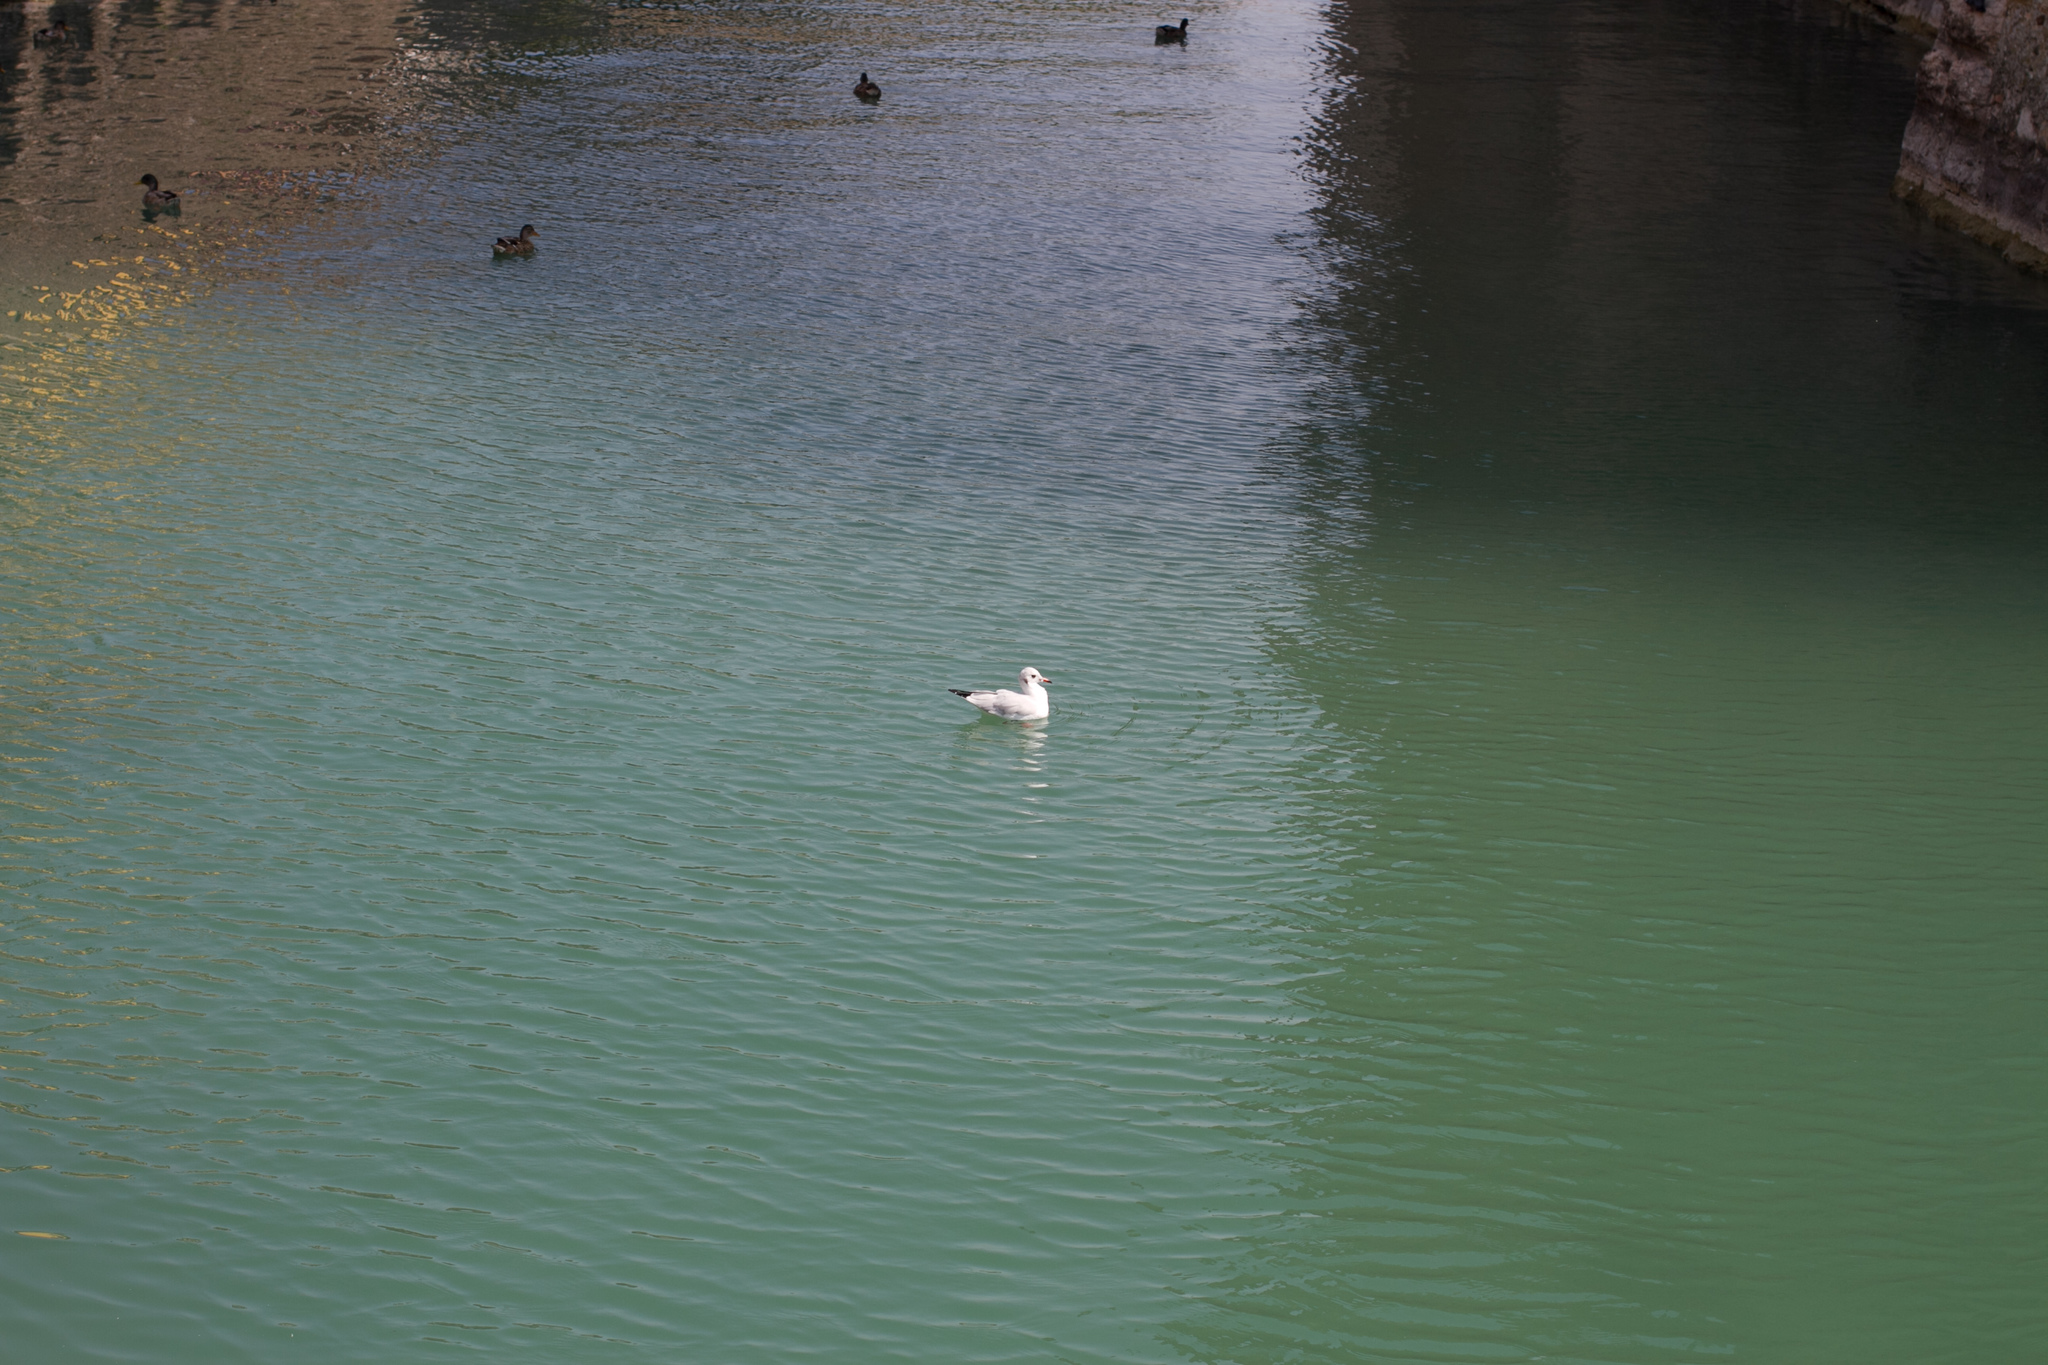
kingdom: Animalia
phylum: Chordata
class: Aves
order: Charadriiformes
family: Laridae
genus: Chroicocephalus
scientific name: Chroicocephalus ridibundus
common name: Black-headed gull
